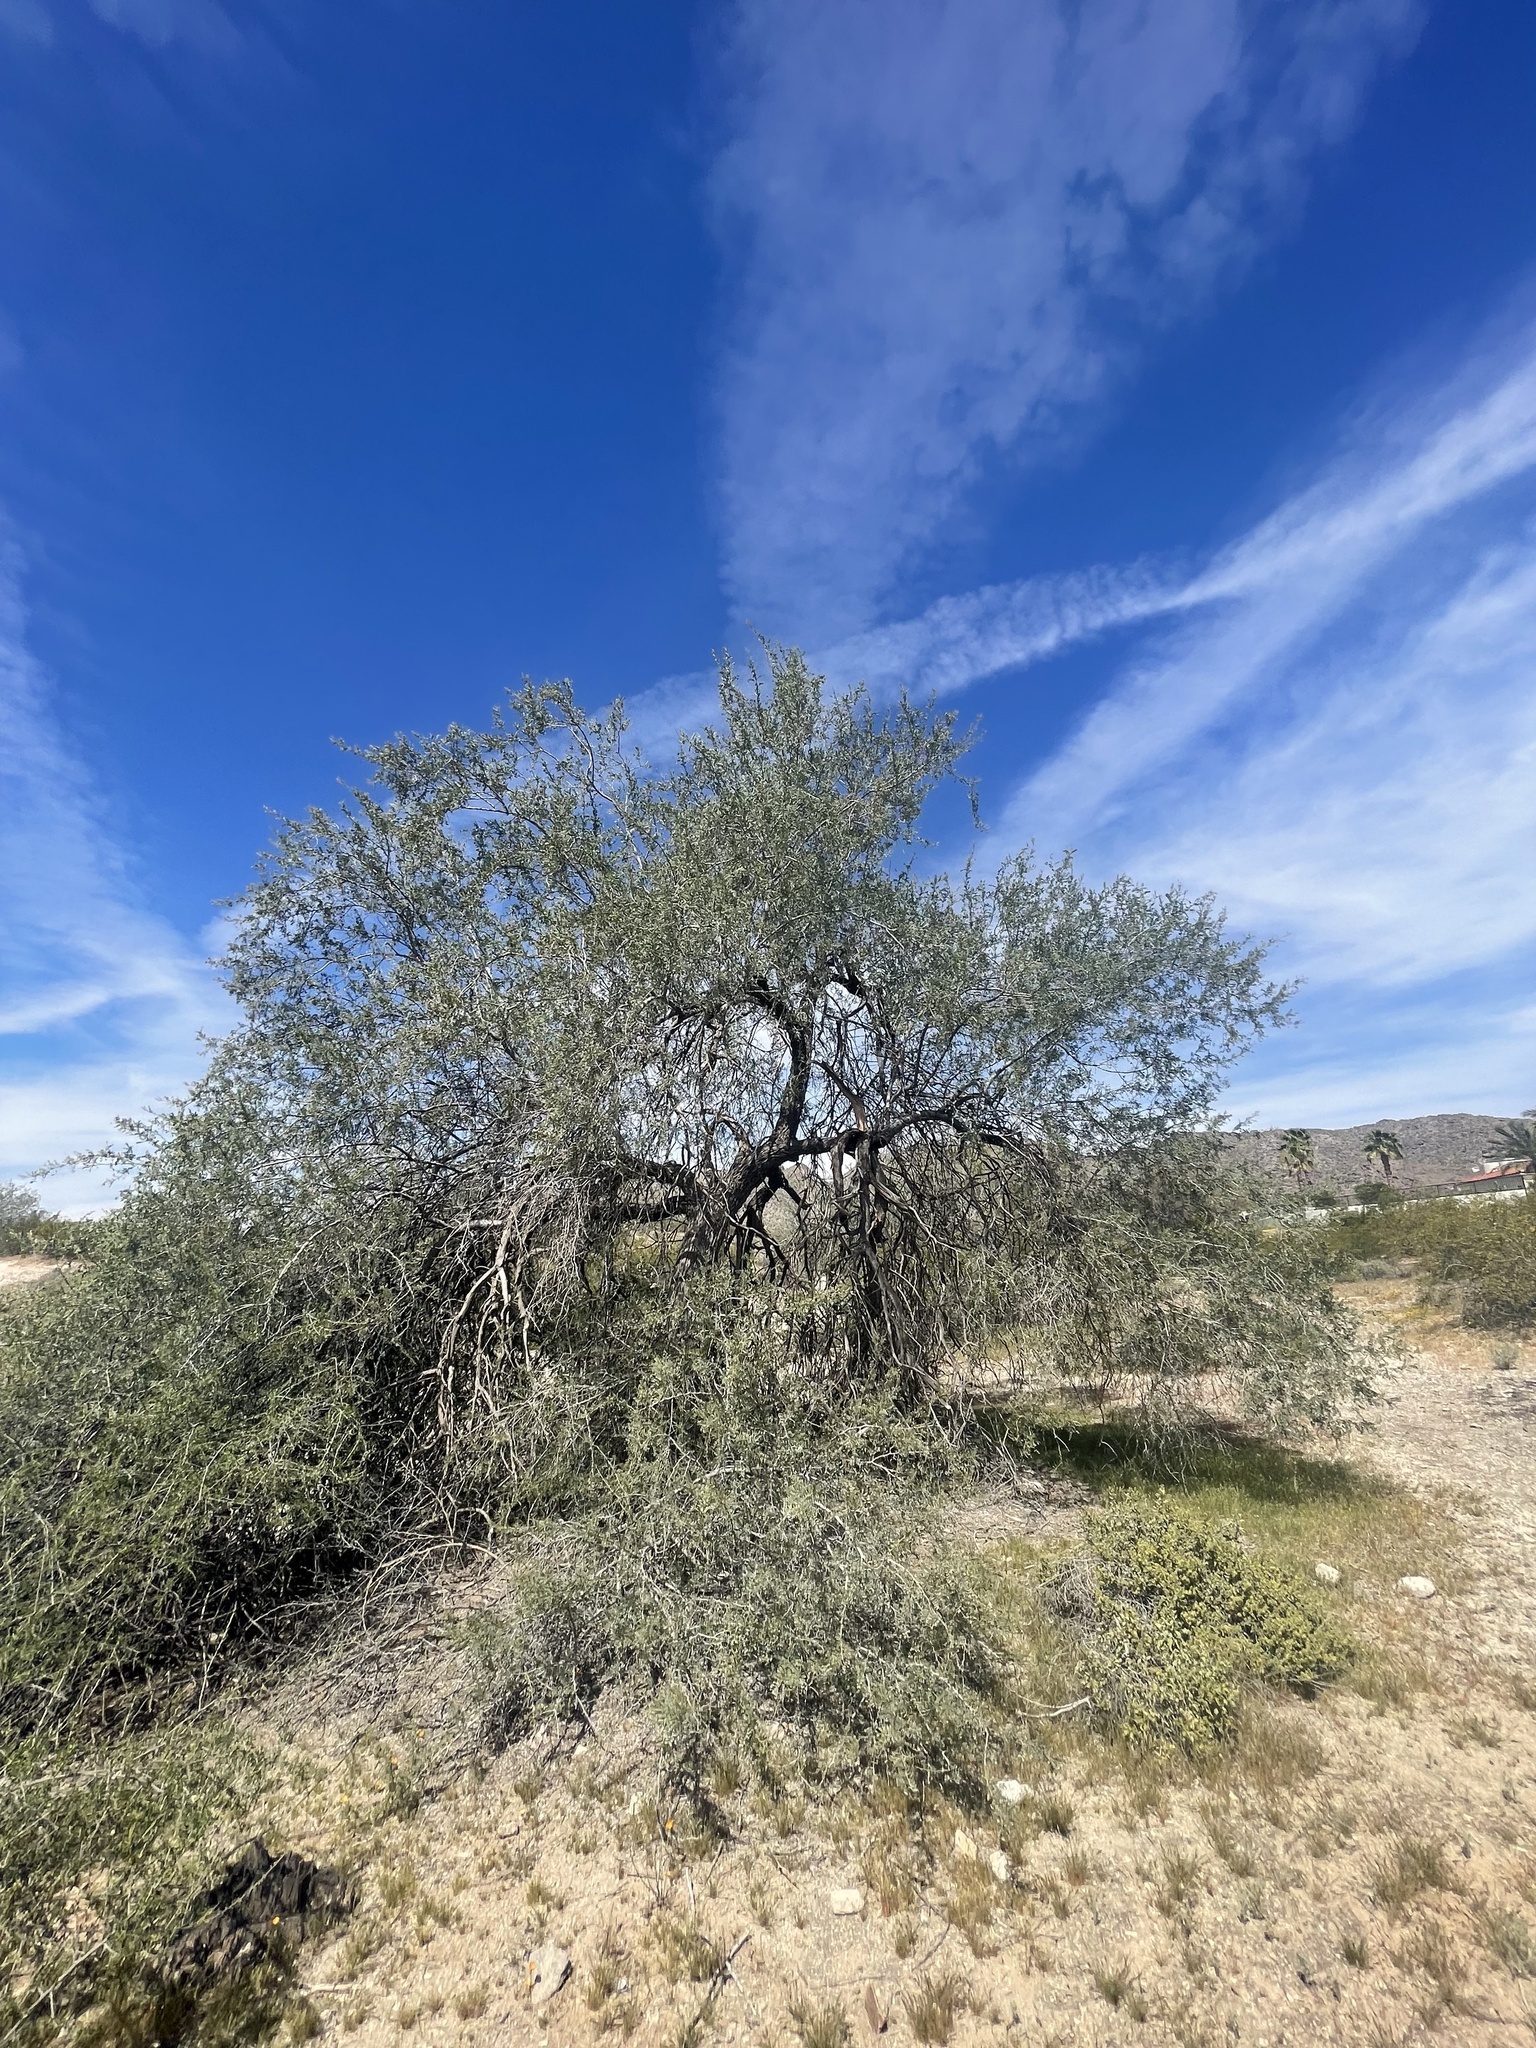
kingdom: Plantae
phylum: Tracheophyta
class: Magnoliopsida
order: Fabales
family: Fabaceae
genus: Olneya
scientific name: Olneya tesota
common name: Desert ironwood
